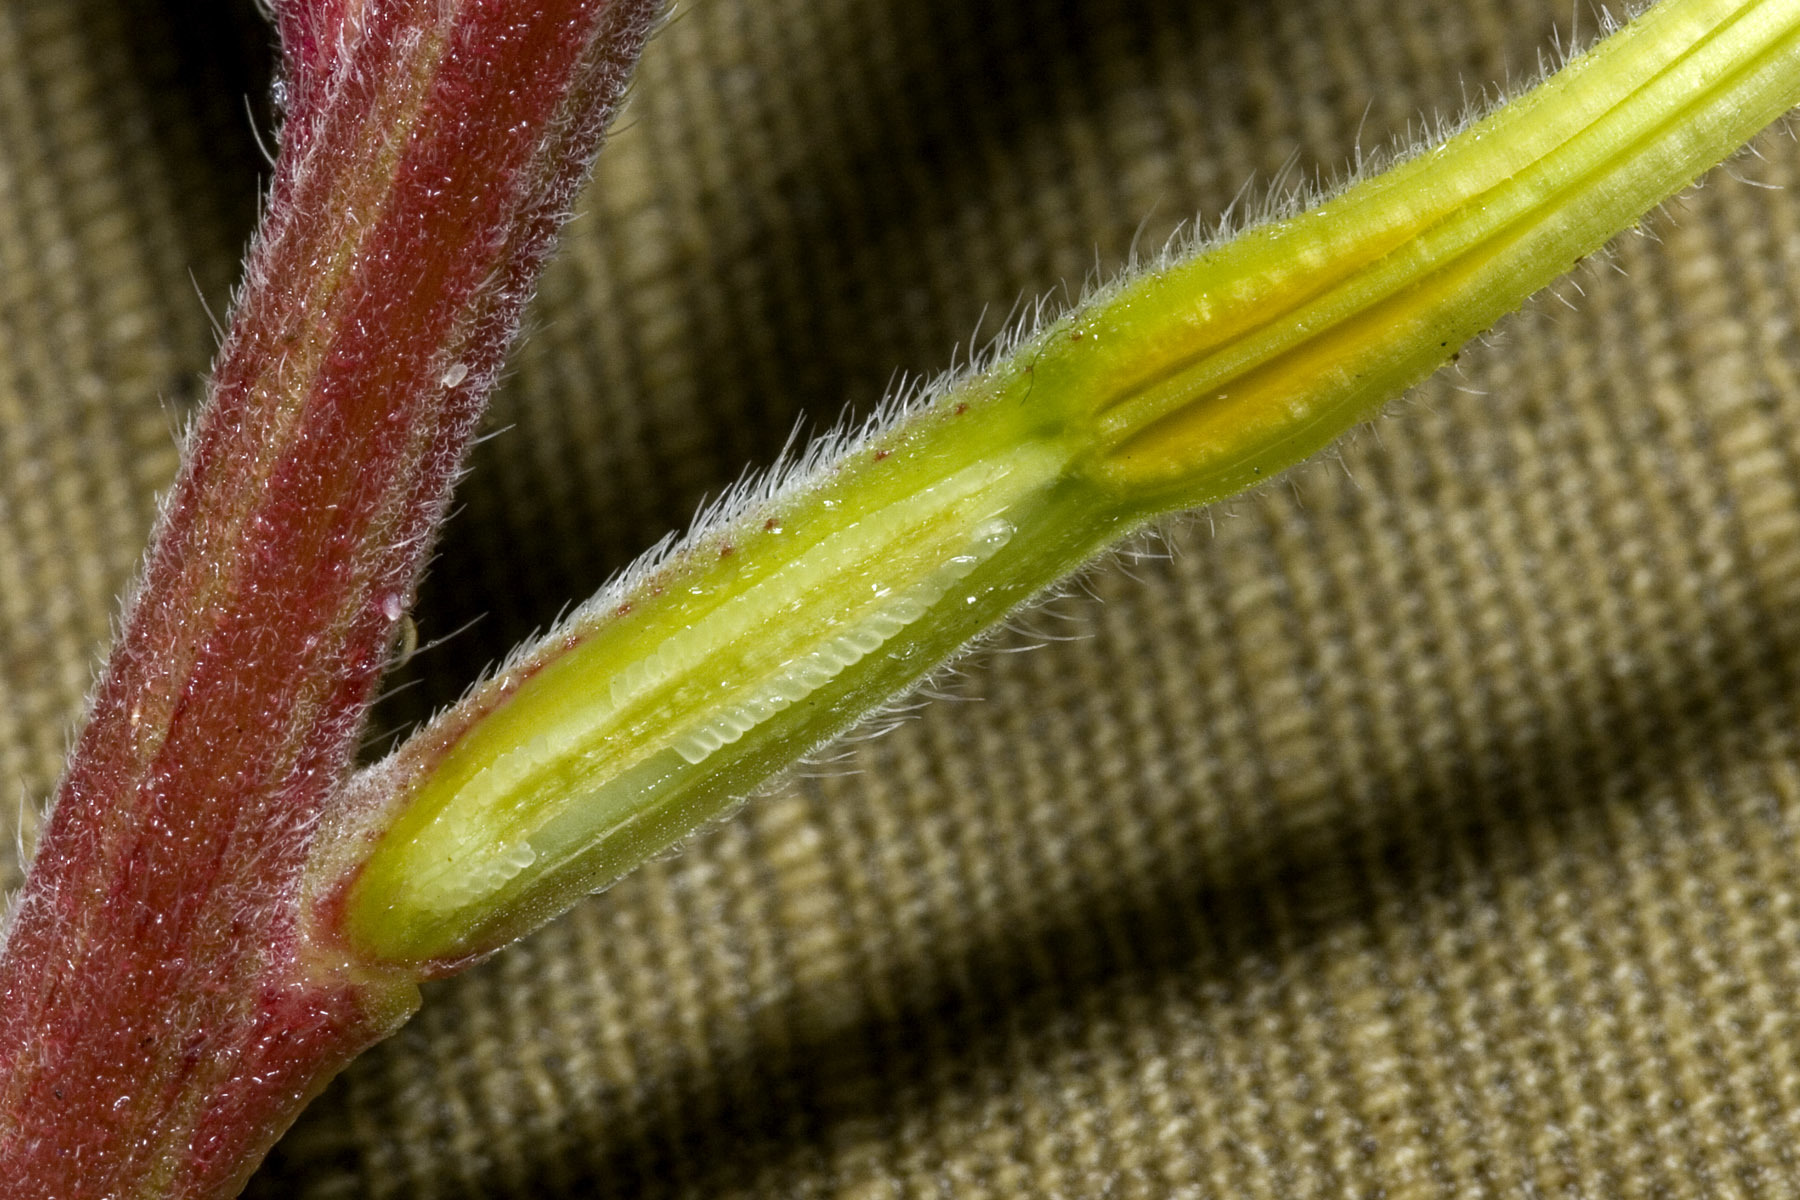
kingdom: Plantae
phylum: Tracheophyta
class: Magnoliopsida
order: Myrtales
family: Onagraceae
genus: Oenothera
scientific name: Oenothera elata
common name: Hooker's evening-primrose
